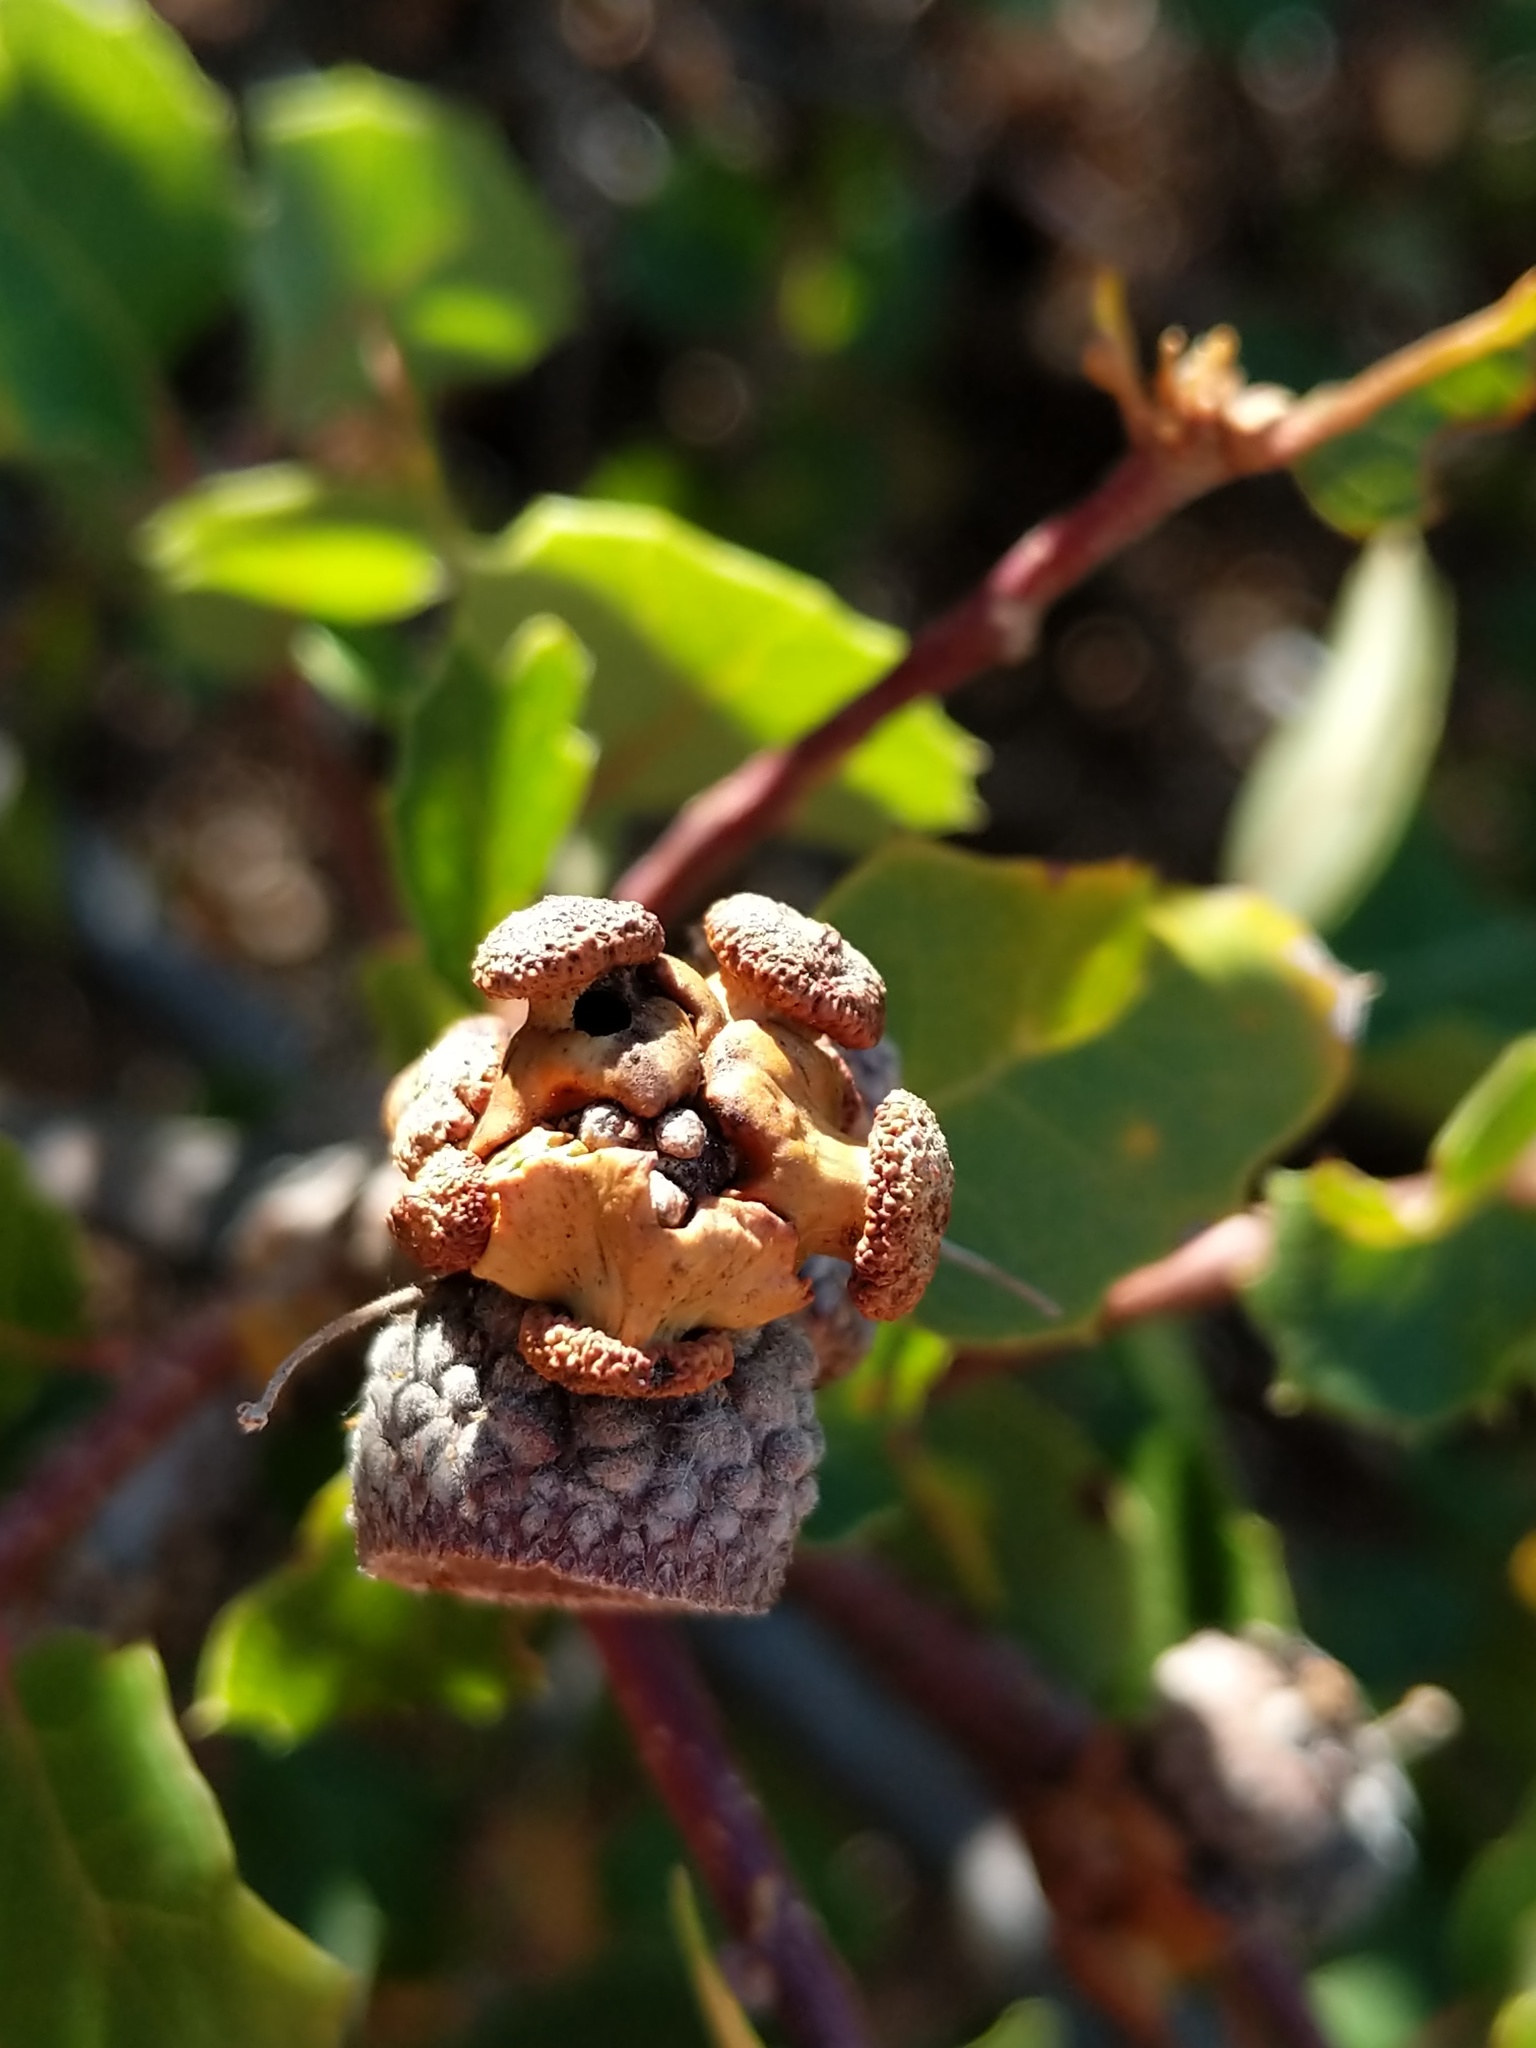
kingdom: Animalia
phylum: Arthropoda
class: Insecta
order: Hymenoptera
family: Cynipidae
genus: Disholcaspis
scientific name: Disholcaspis prehensa
